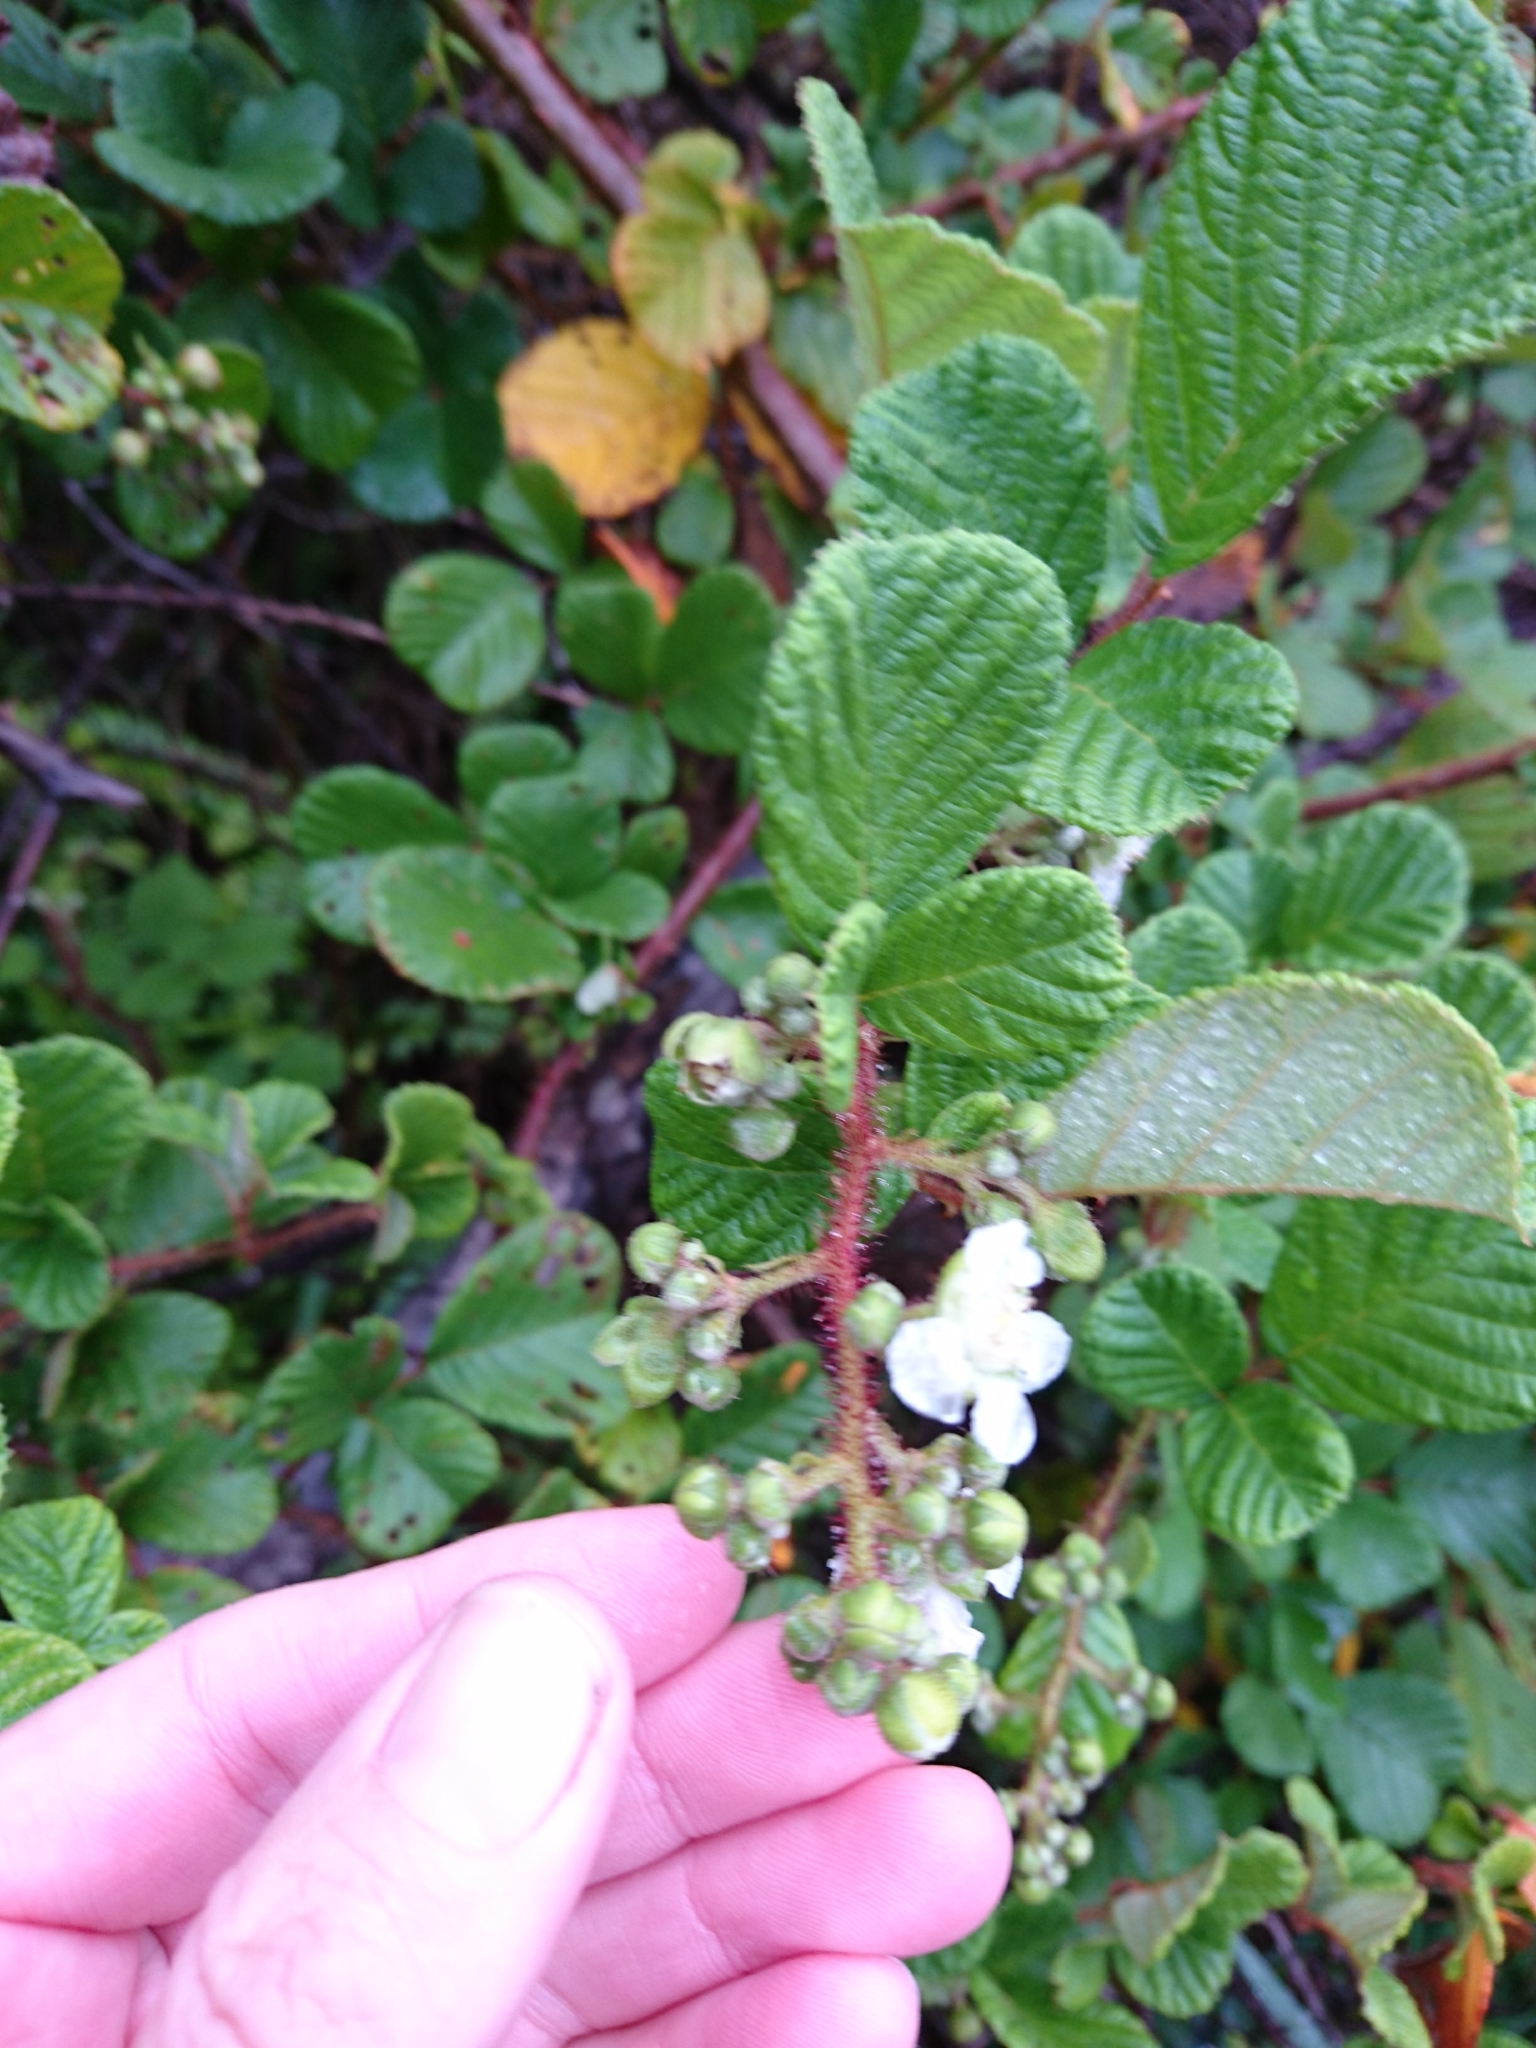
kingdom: Plantae
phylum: Tracheophyta
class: Magnoliopsida
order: Rosales
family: Rosaceae
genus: Rubus
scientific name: Rubus ellipticus
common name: Cheeseberry
